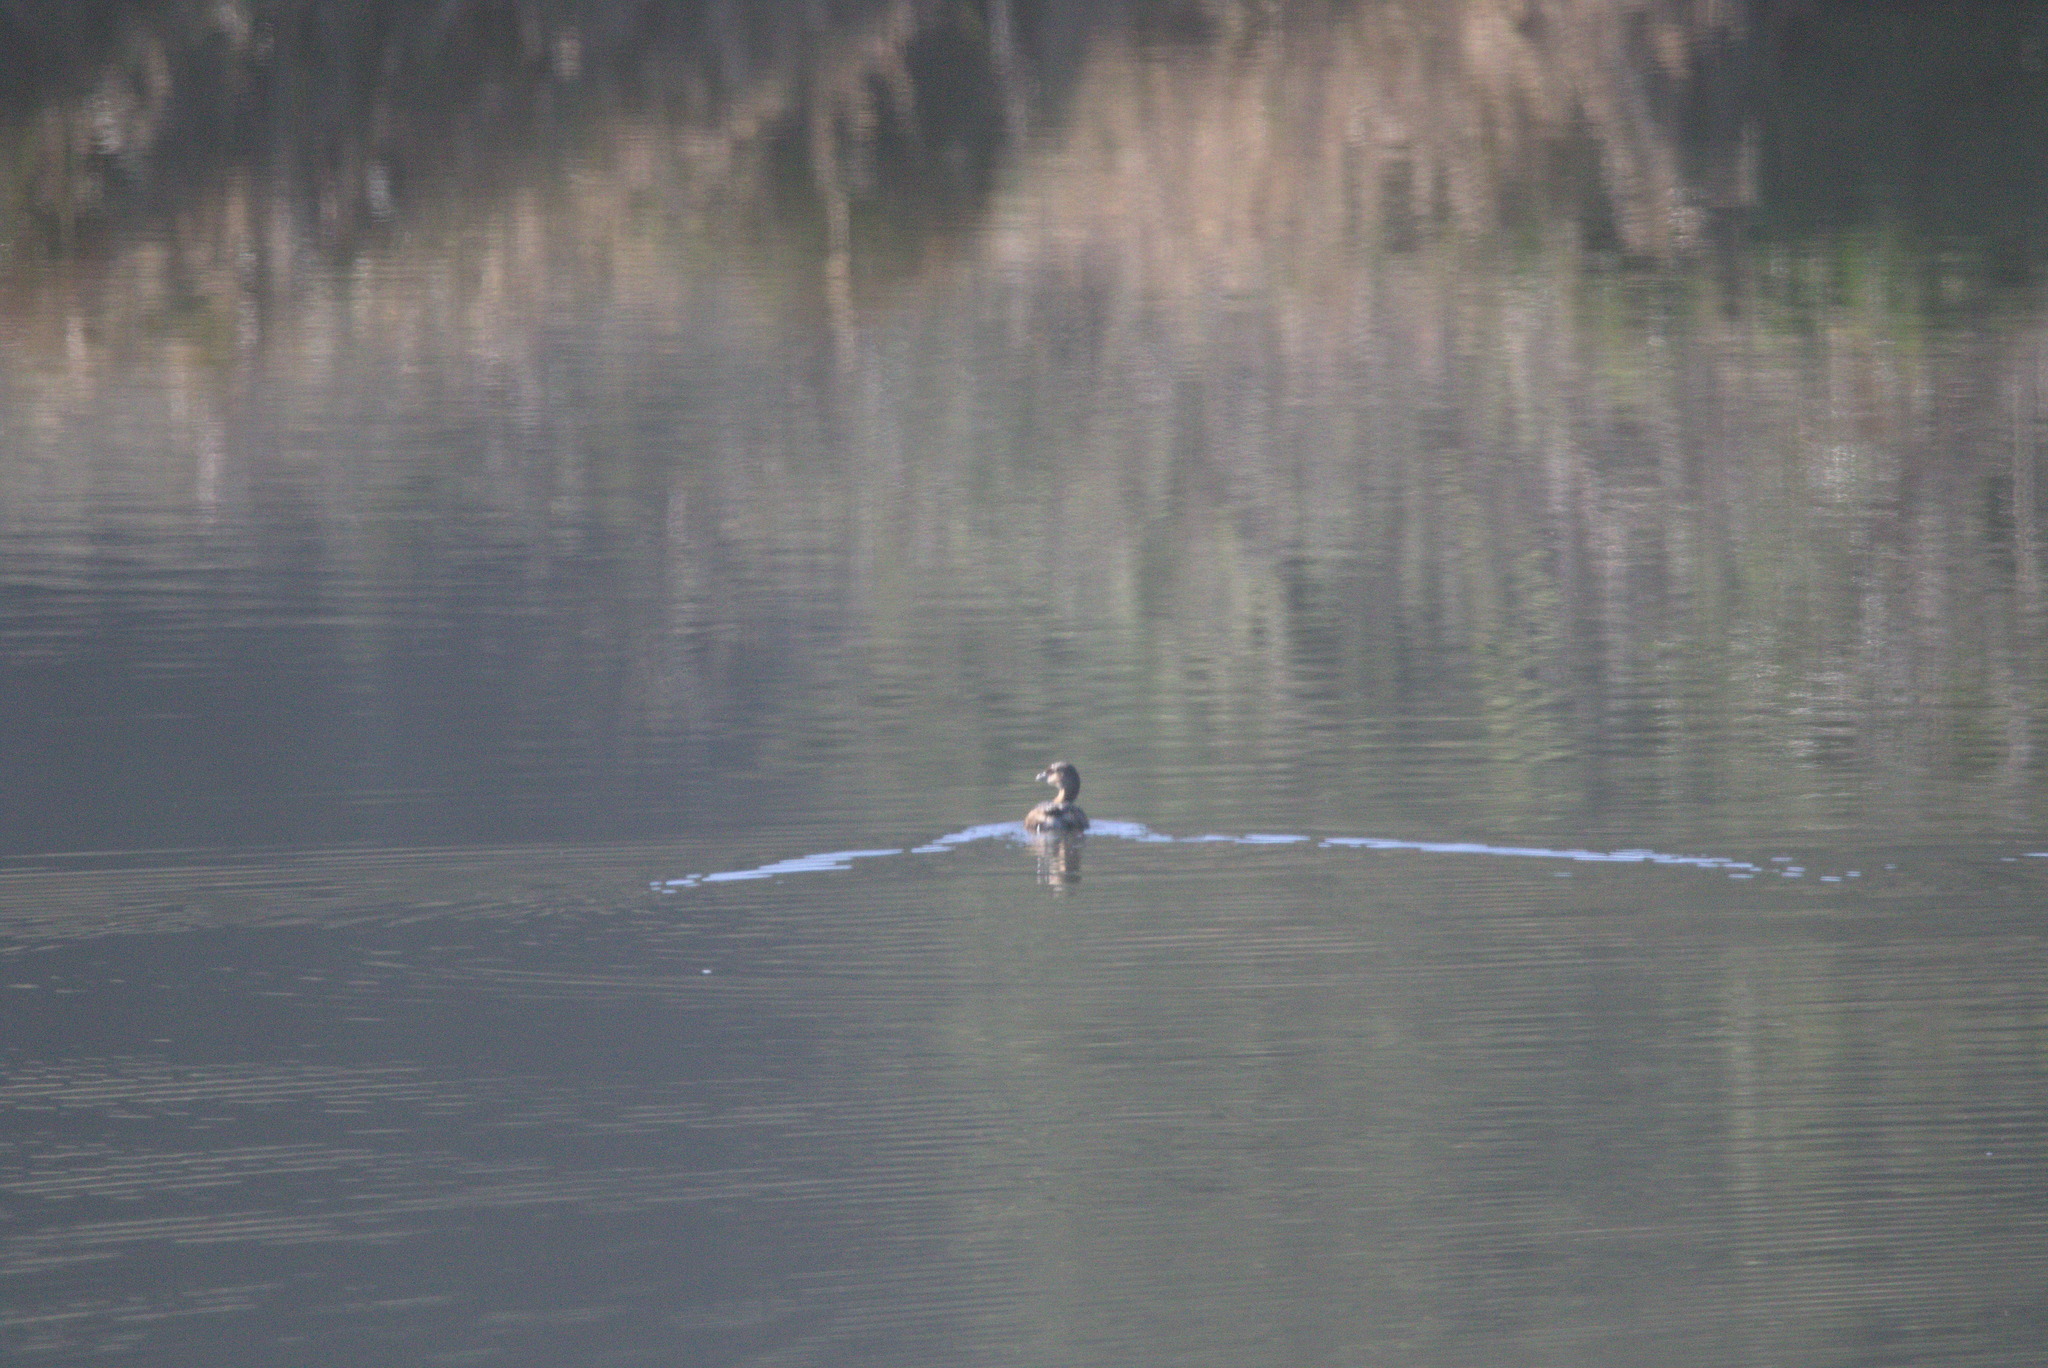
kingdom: Animalia
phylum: Chordata
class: Aves
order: Podicipediformes
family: Podicipedidae
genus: Podilymbus
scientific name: Podilymbus podiceps
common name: Pied-billed grebe
